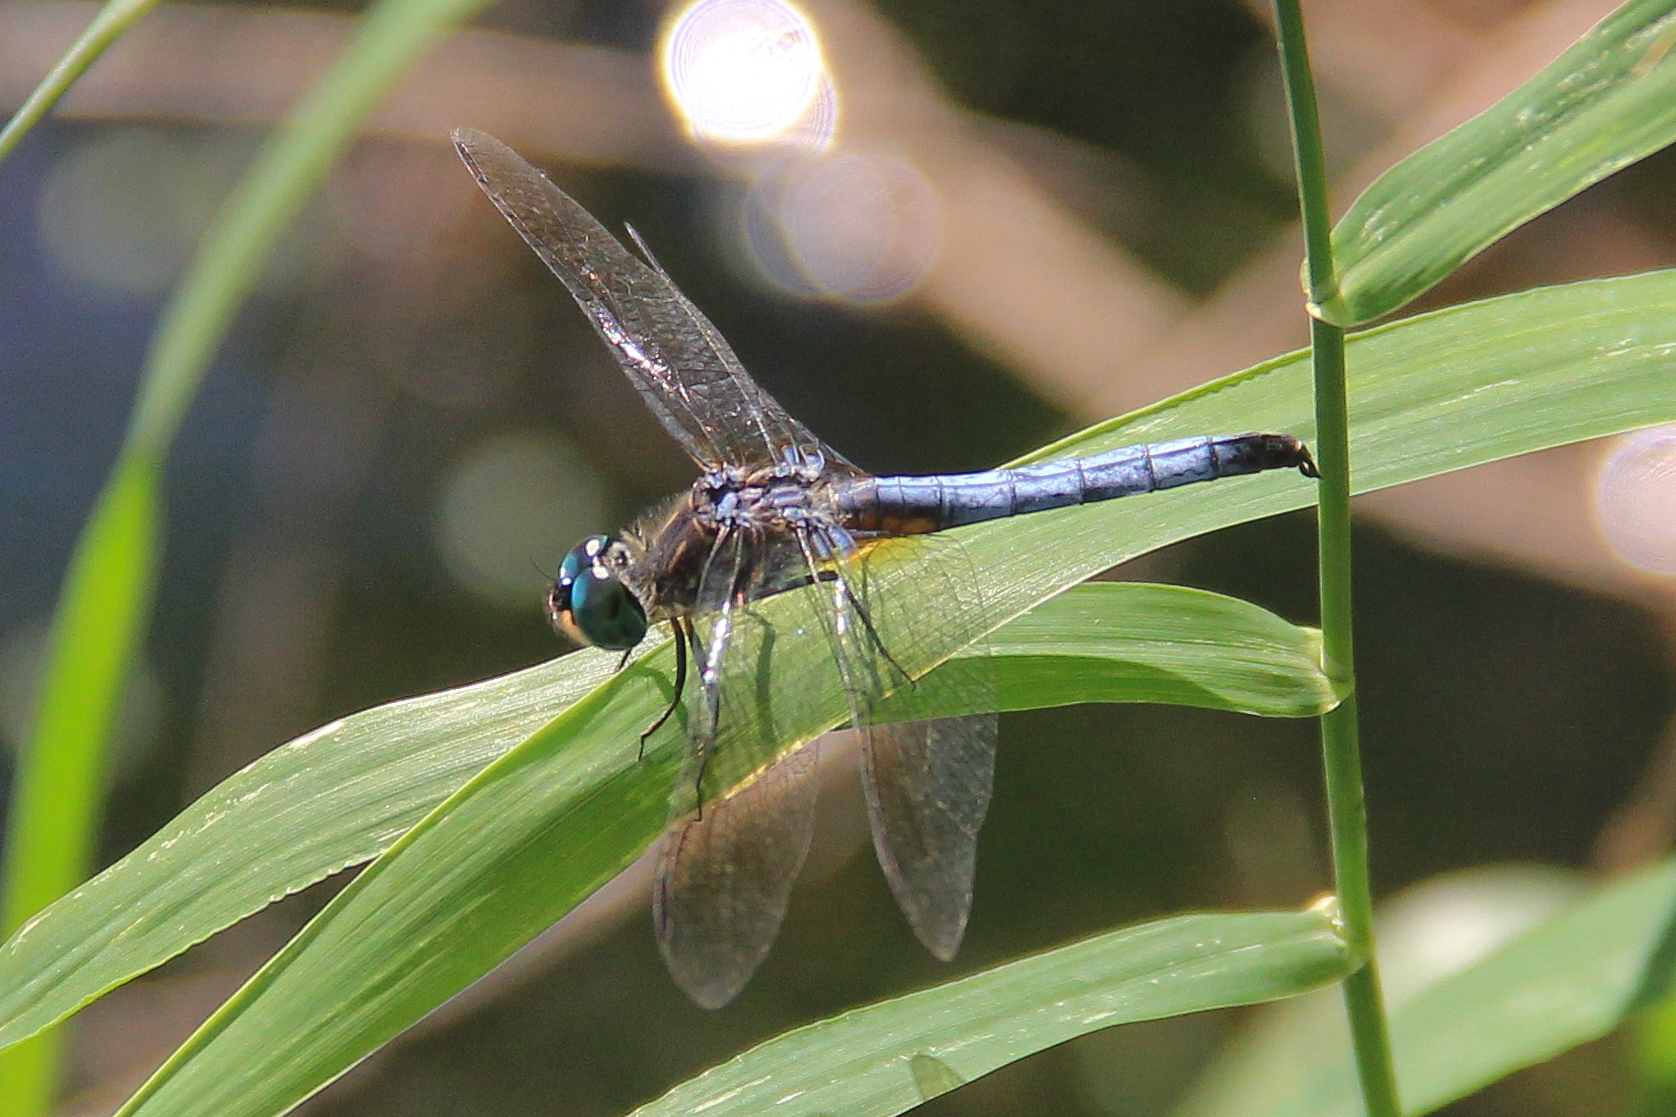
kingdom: Animalia
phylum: Arthropoda
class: Insecta
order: Odonata
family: Libellulidae
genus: Pachydiplax
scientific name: Pachydiplax longipennis
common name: Blue dasher
